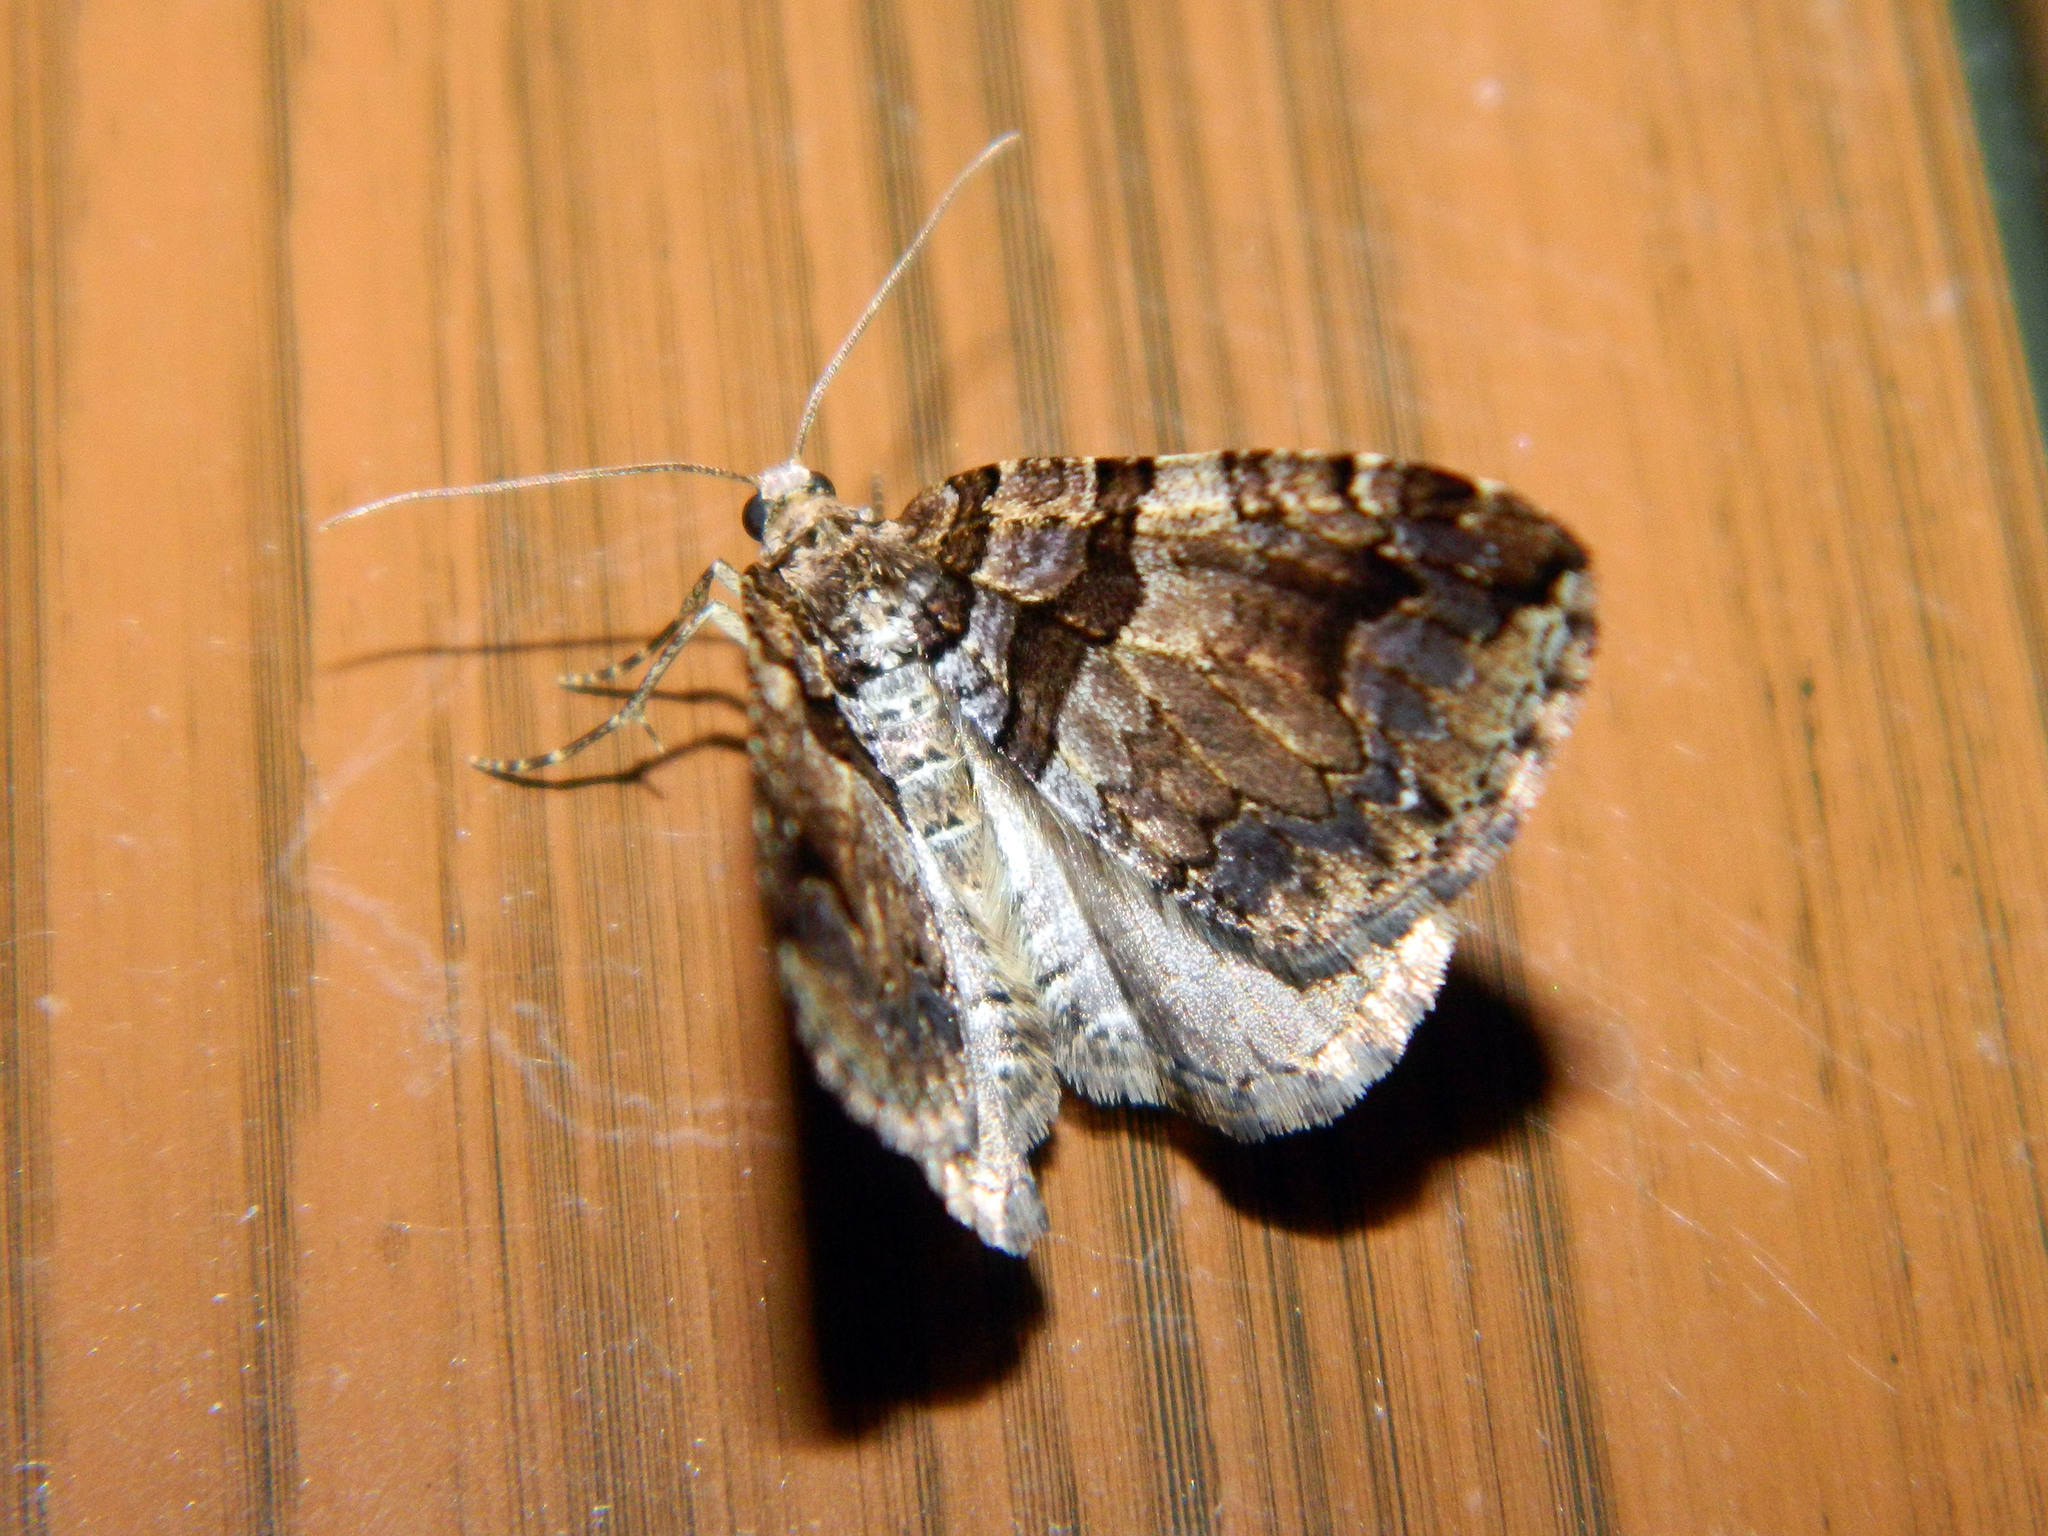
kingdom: Animalia
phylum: Arthropoda
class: Insecta
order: Lepidoptera
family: Geometridae
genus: Anticlea
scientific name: Anticlea vasiliata
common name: Variable carpet
